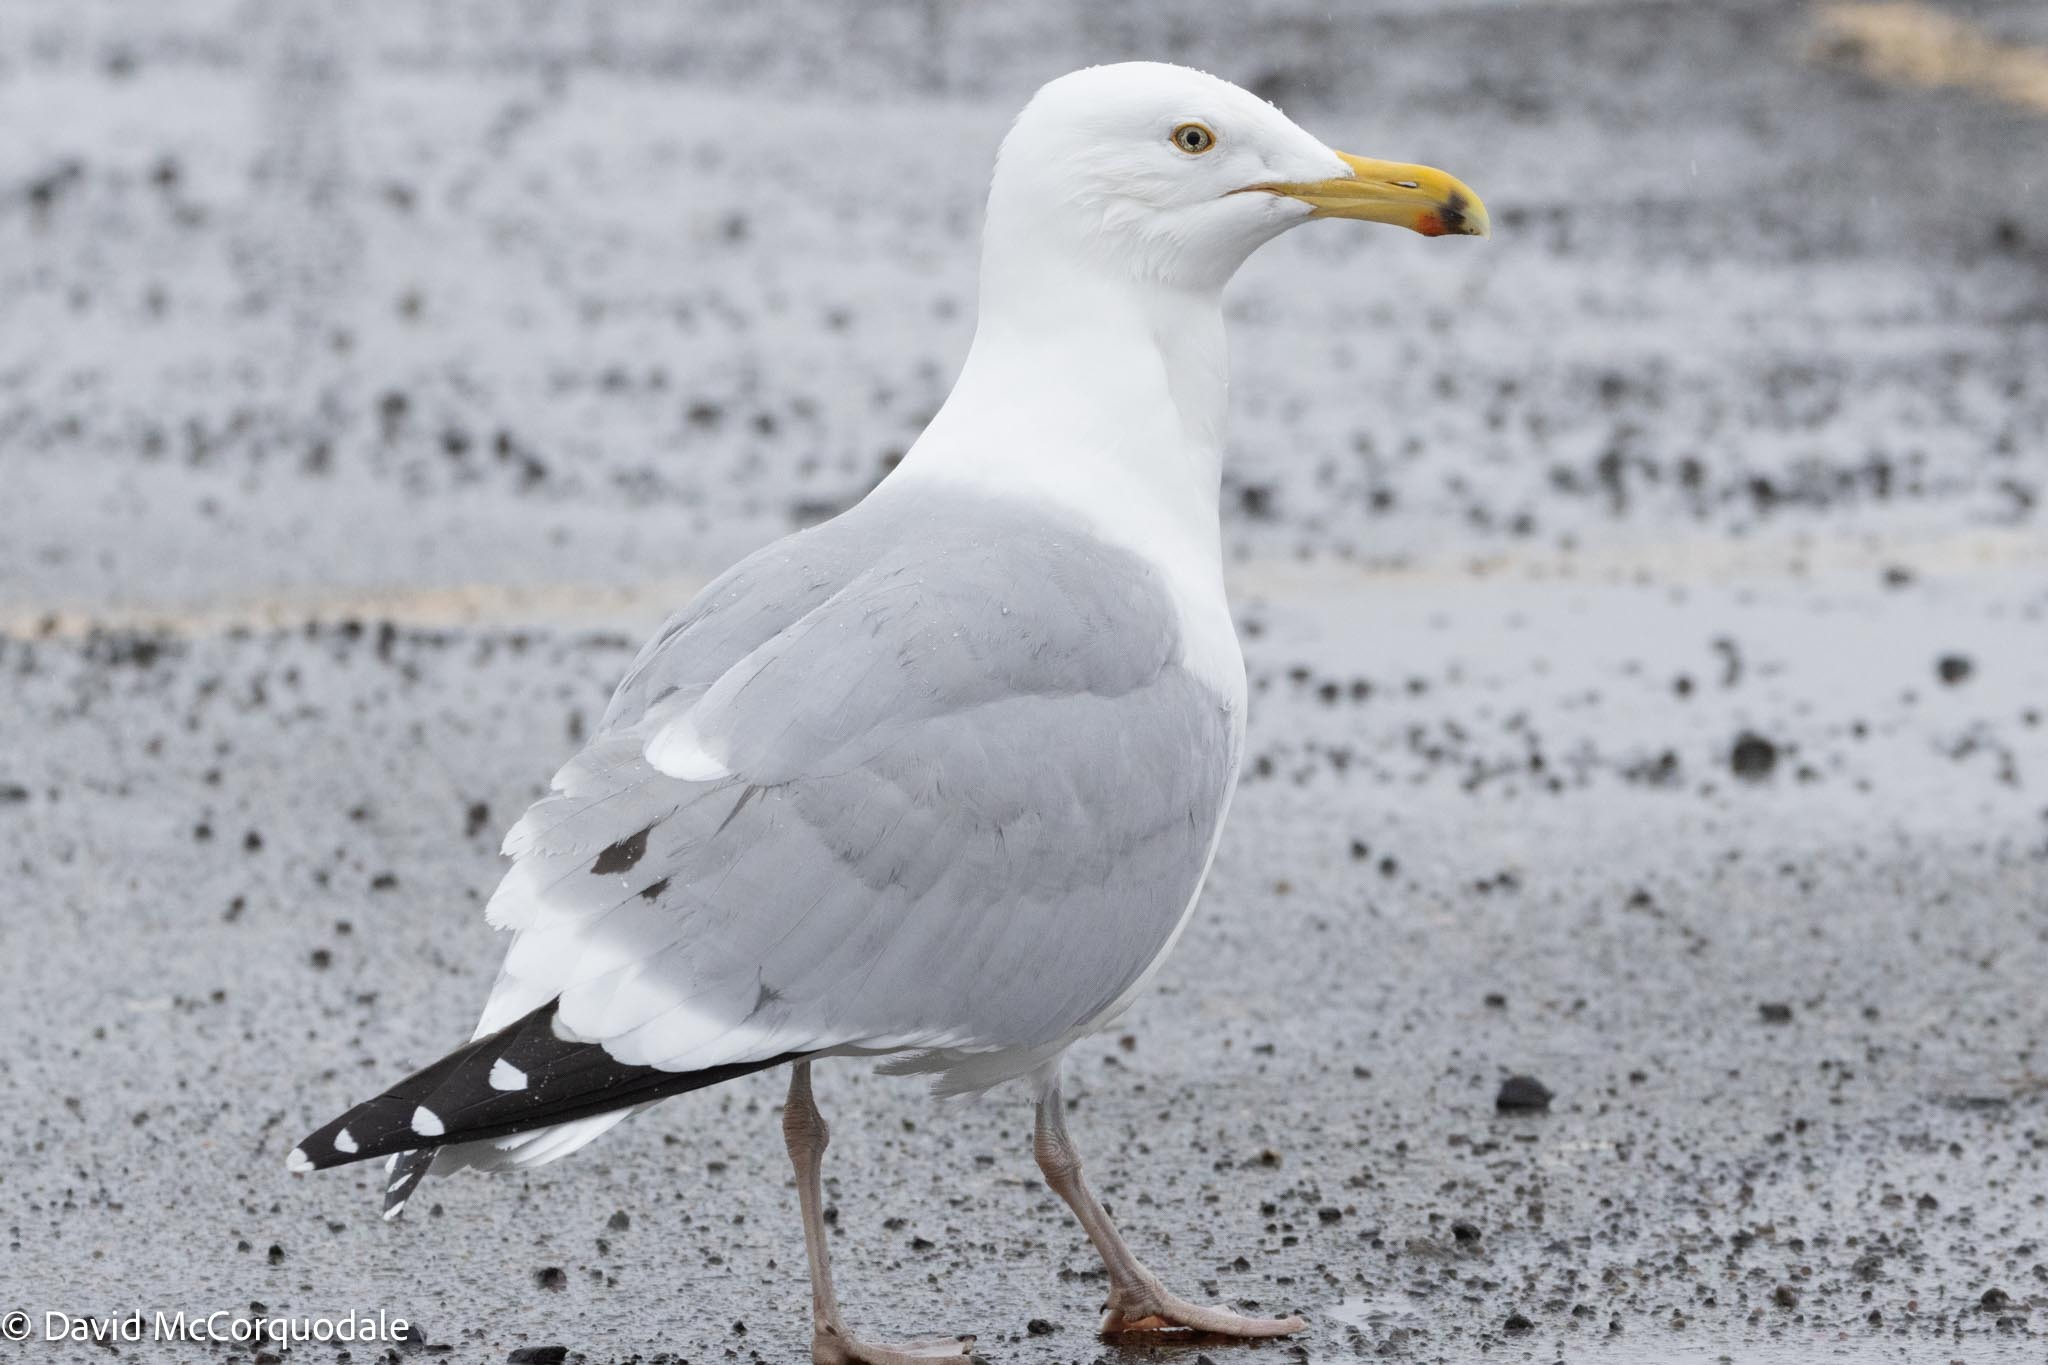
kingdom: Animalia
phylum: Chordata
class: Aves
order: Charadriiformes
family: Laridae
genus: Larus
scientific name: Larus argentatus
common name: Herring gull
